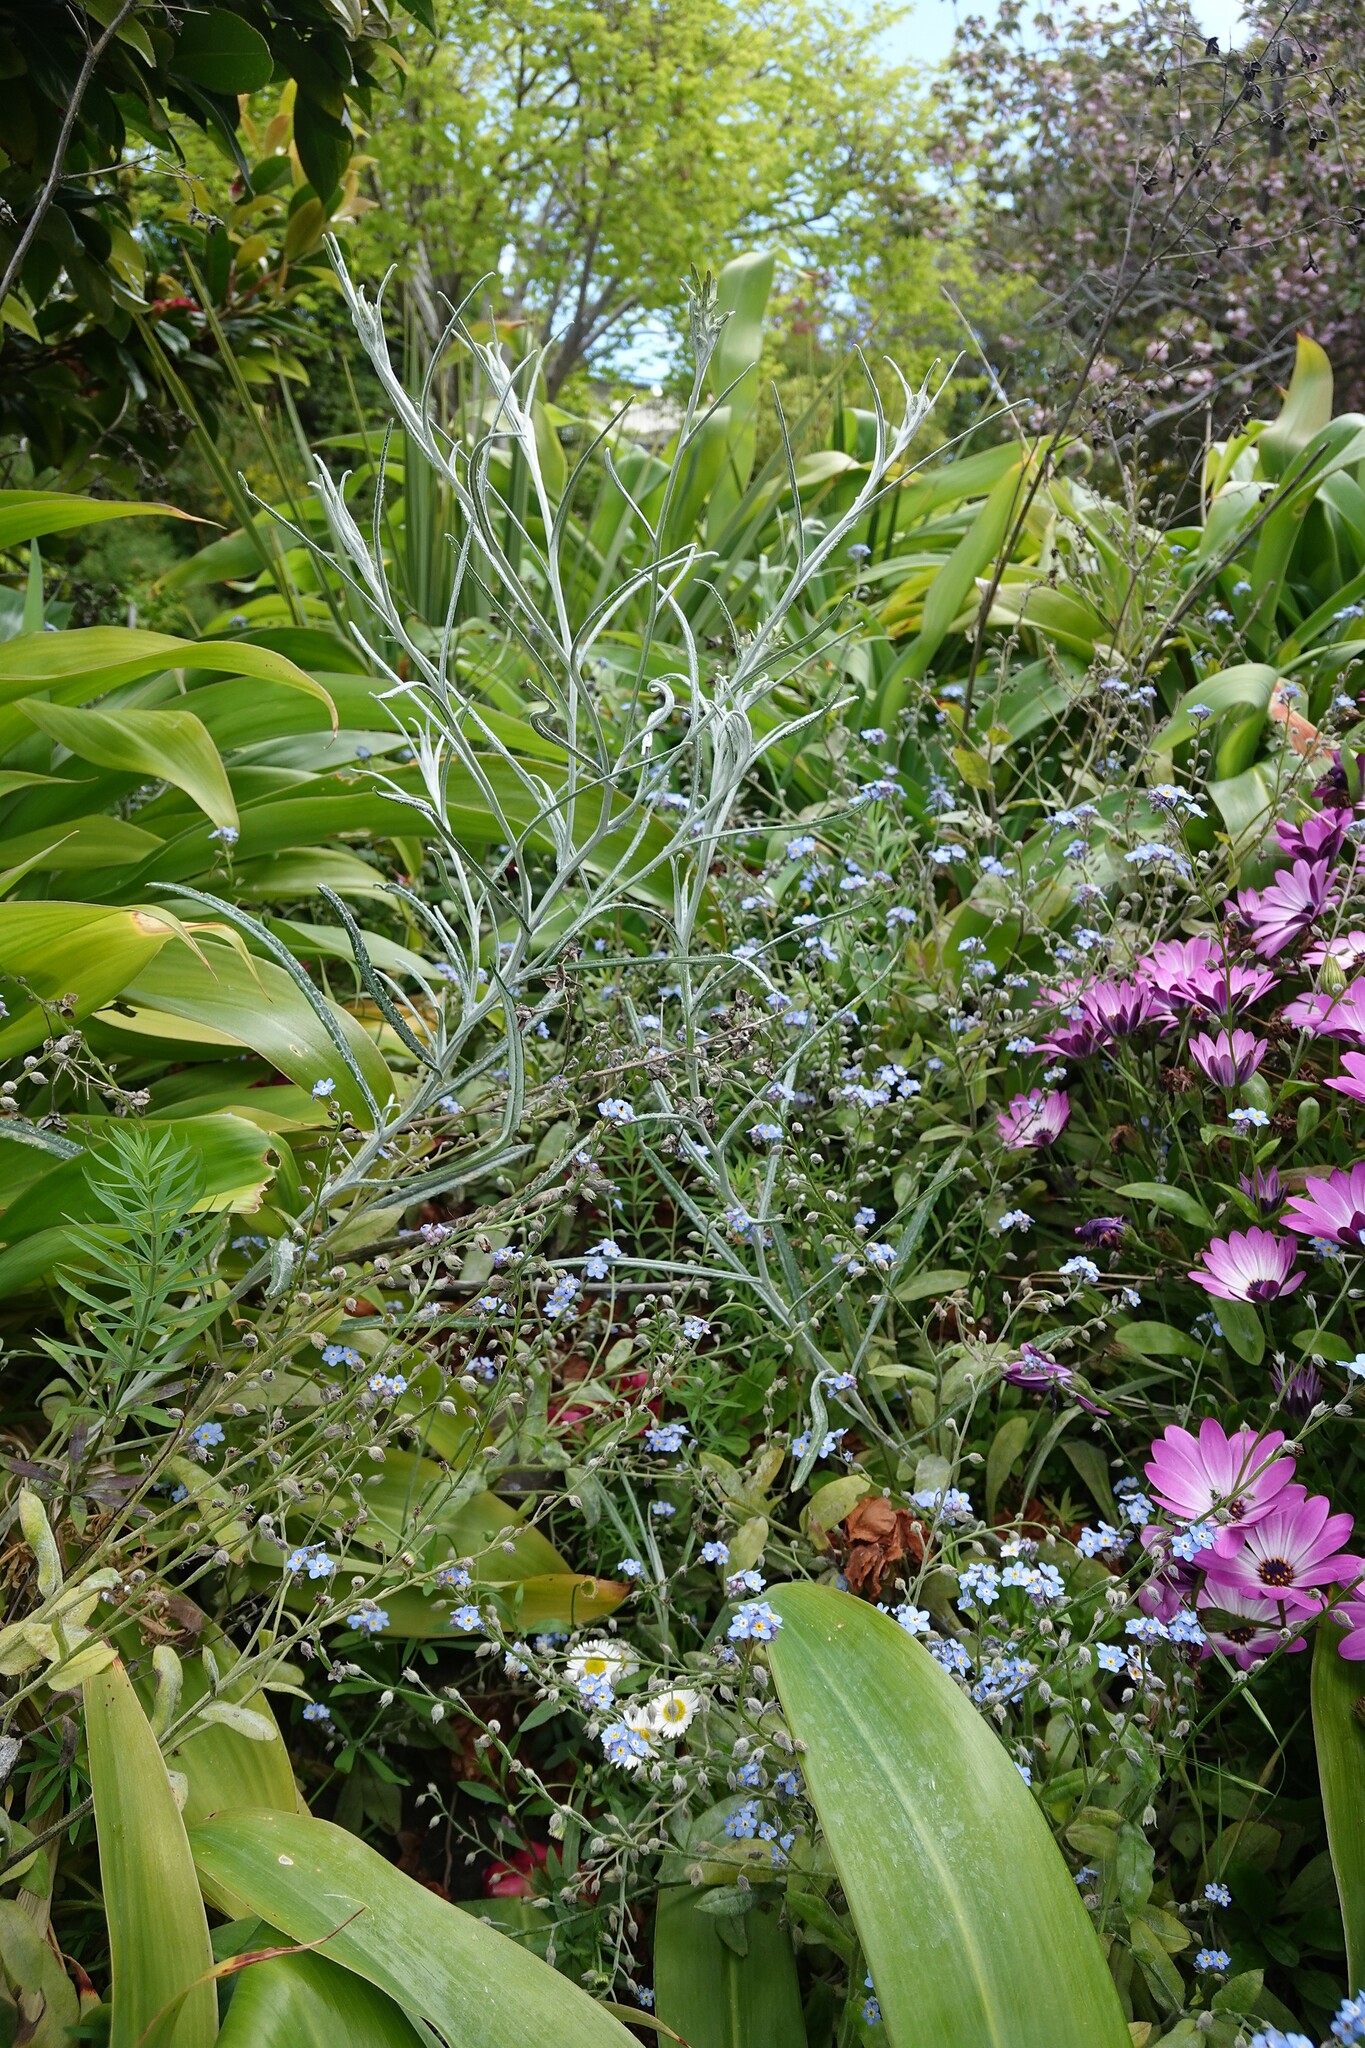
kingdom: Plantae
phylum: Tracheophyta
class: Magnoliopsida
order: Asterales
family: Asteraceae
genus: Senecio
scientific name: Senecio quadridentatus
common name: Cotton fireweed
